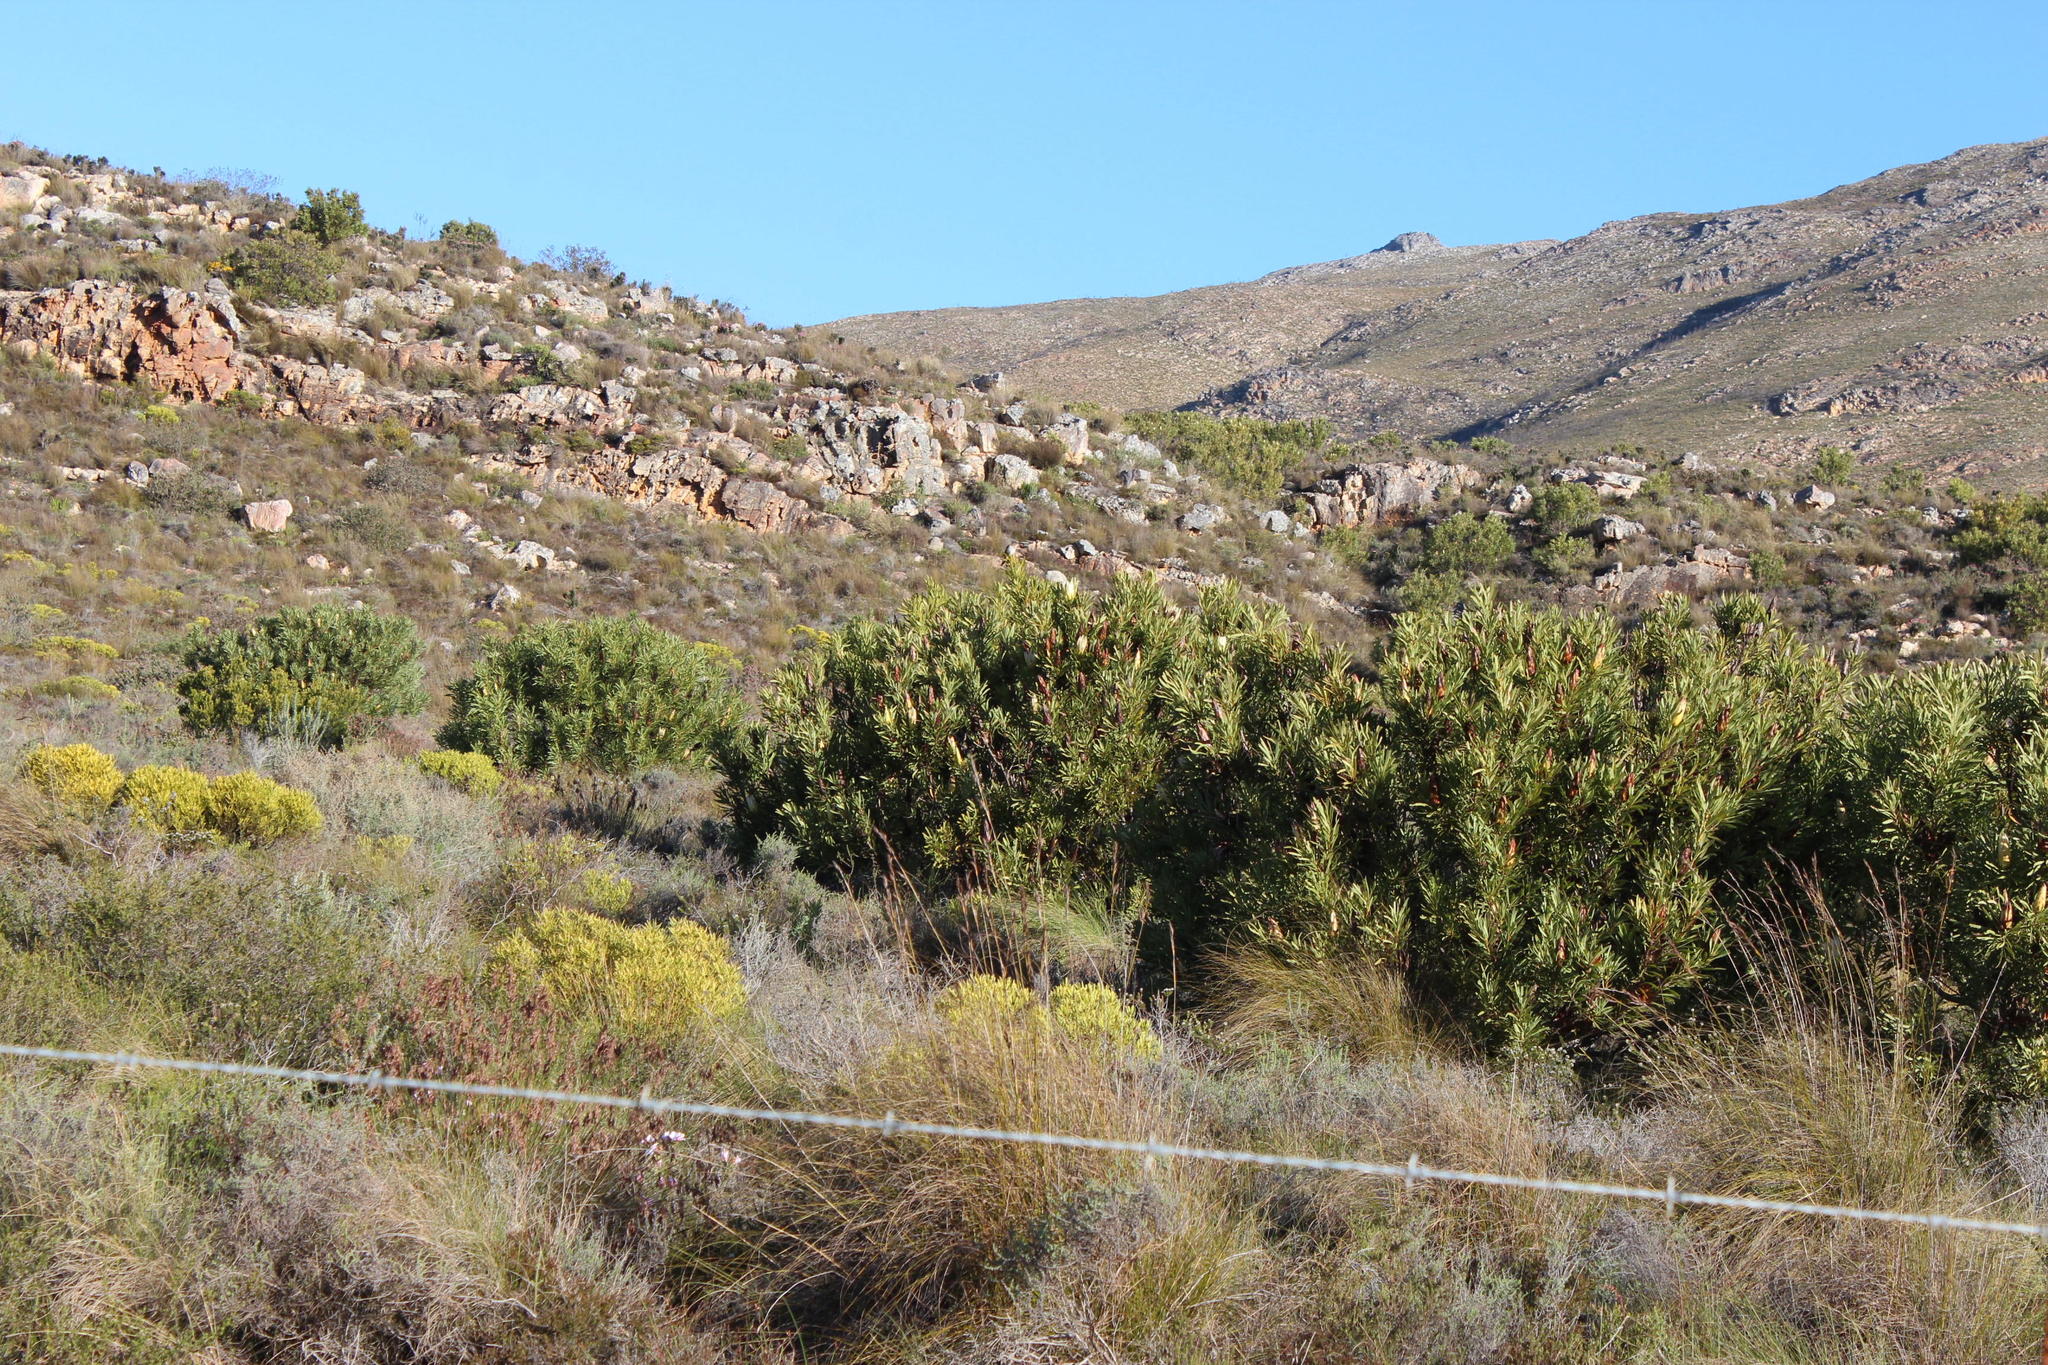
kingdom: Plantae
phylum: Tracheophyta
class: Magnoliopsida
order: Proteales
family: Proteaceae
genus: Protea
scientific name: Protea repens
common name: Sugarbush
